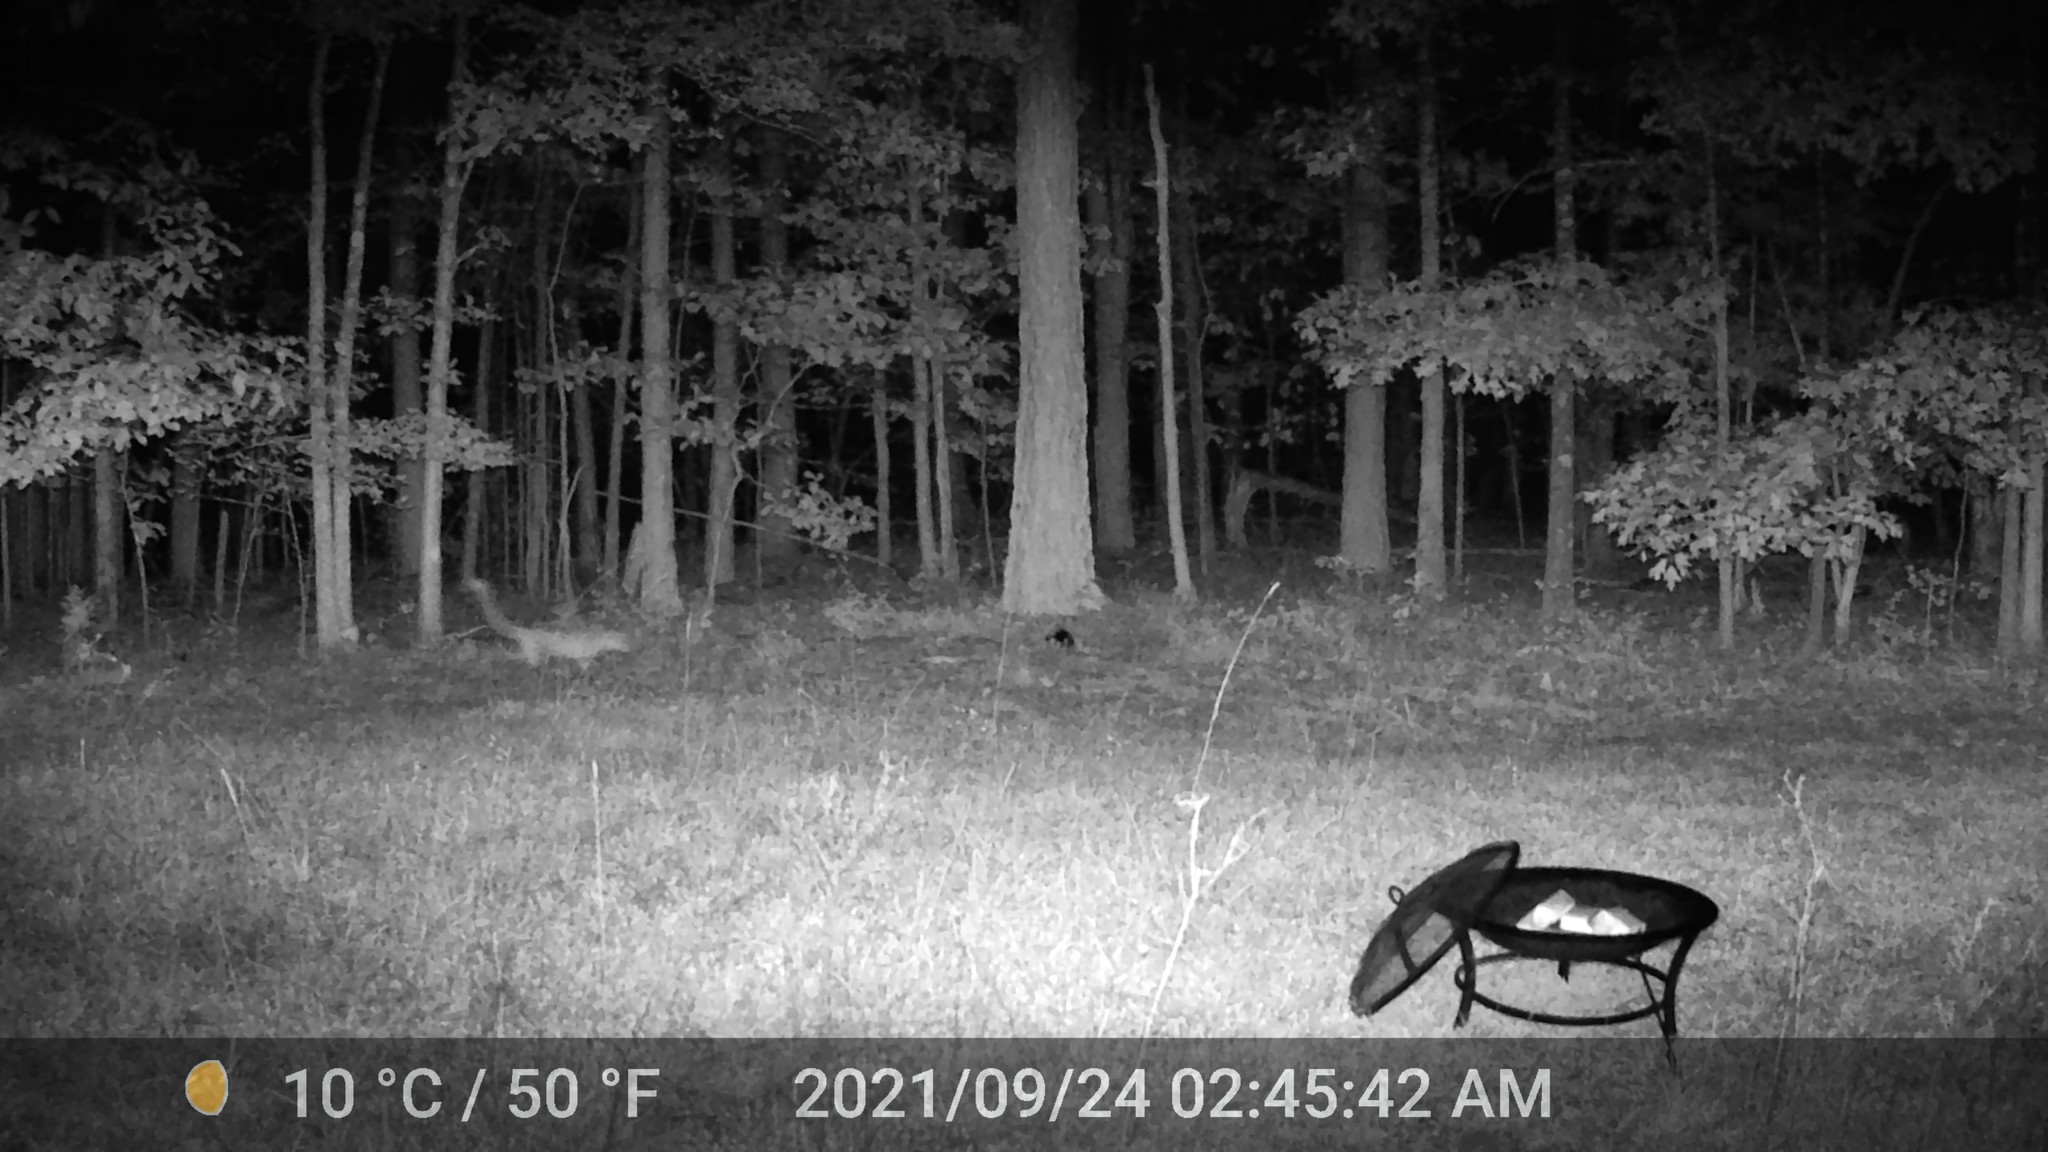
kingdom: Animalia
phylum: Chordata
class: Mammalia
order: Carnivora
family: Canidae
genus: Vulpes
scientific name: Vulpes vulpes
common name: Red fox
